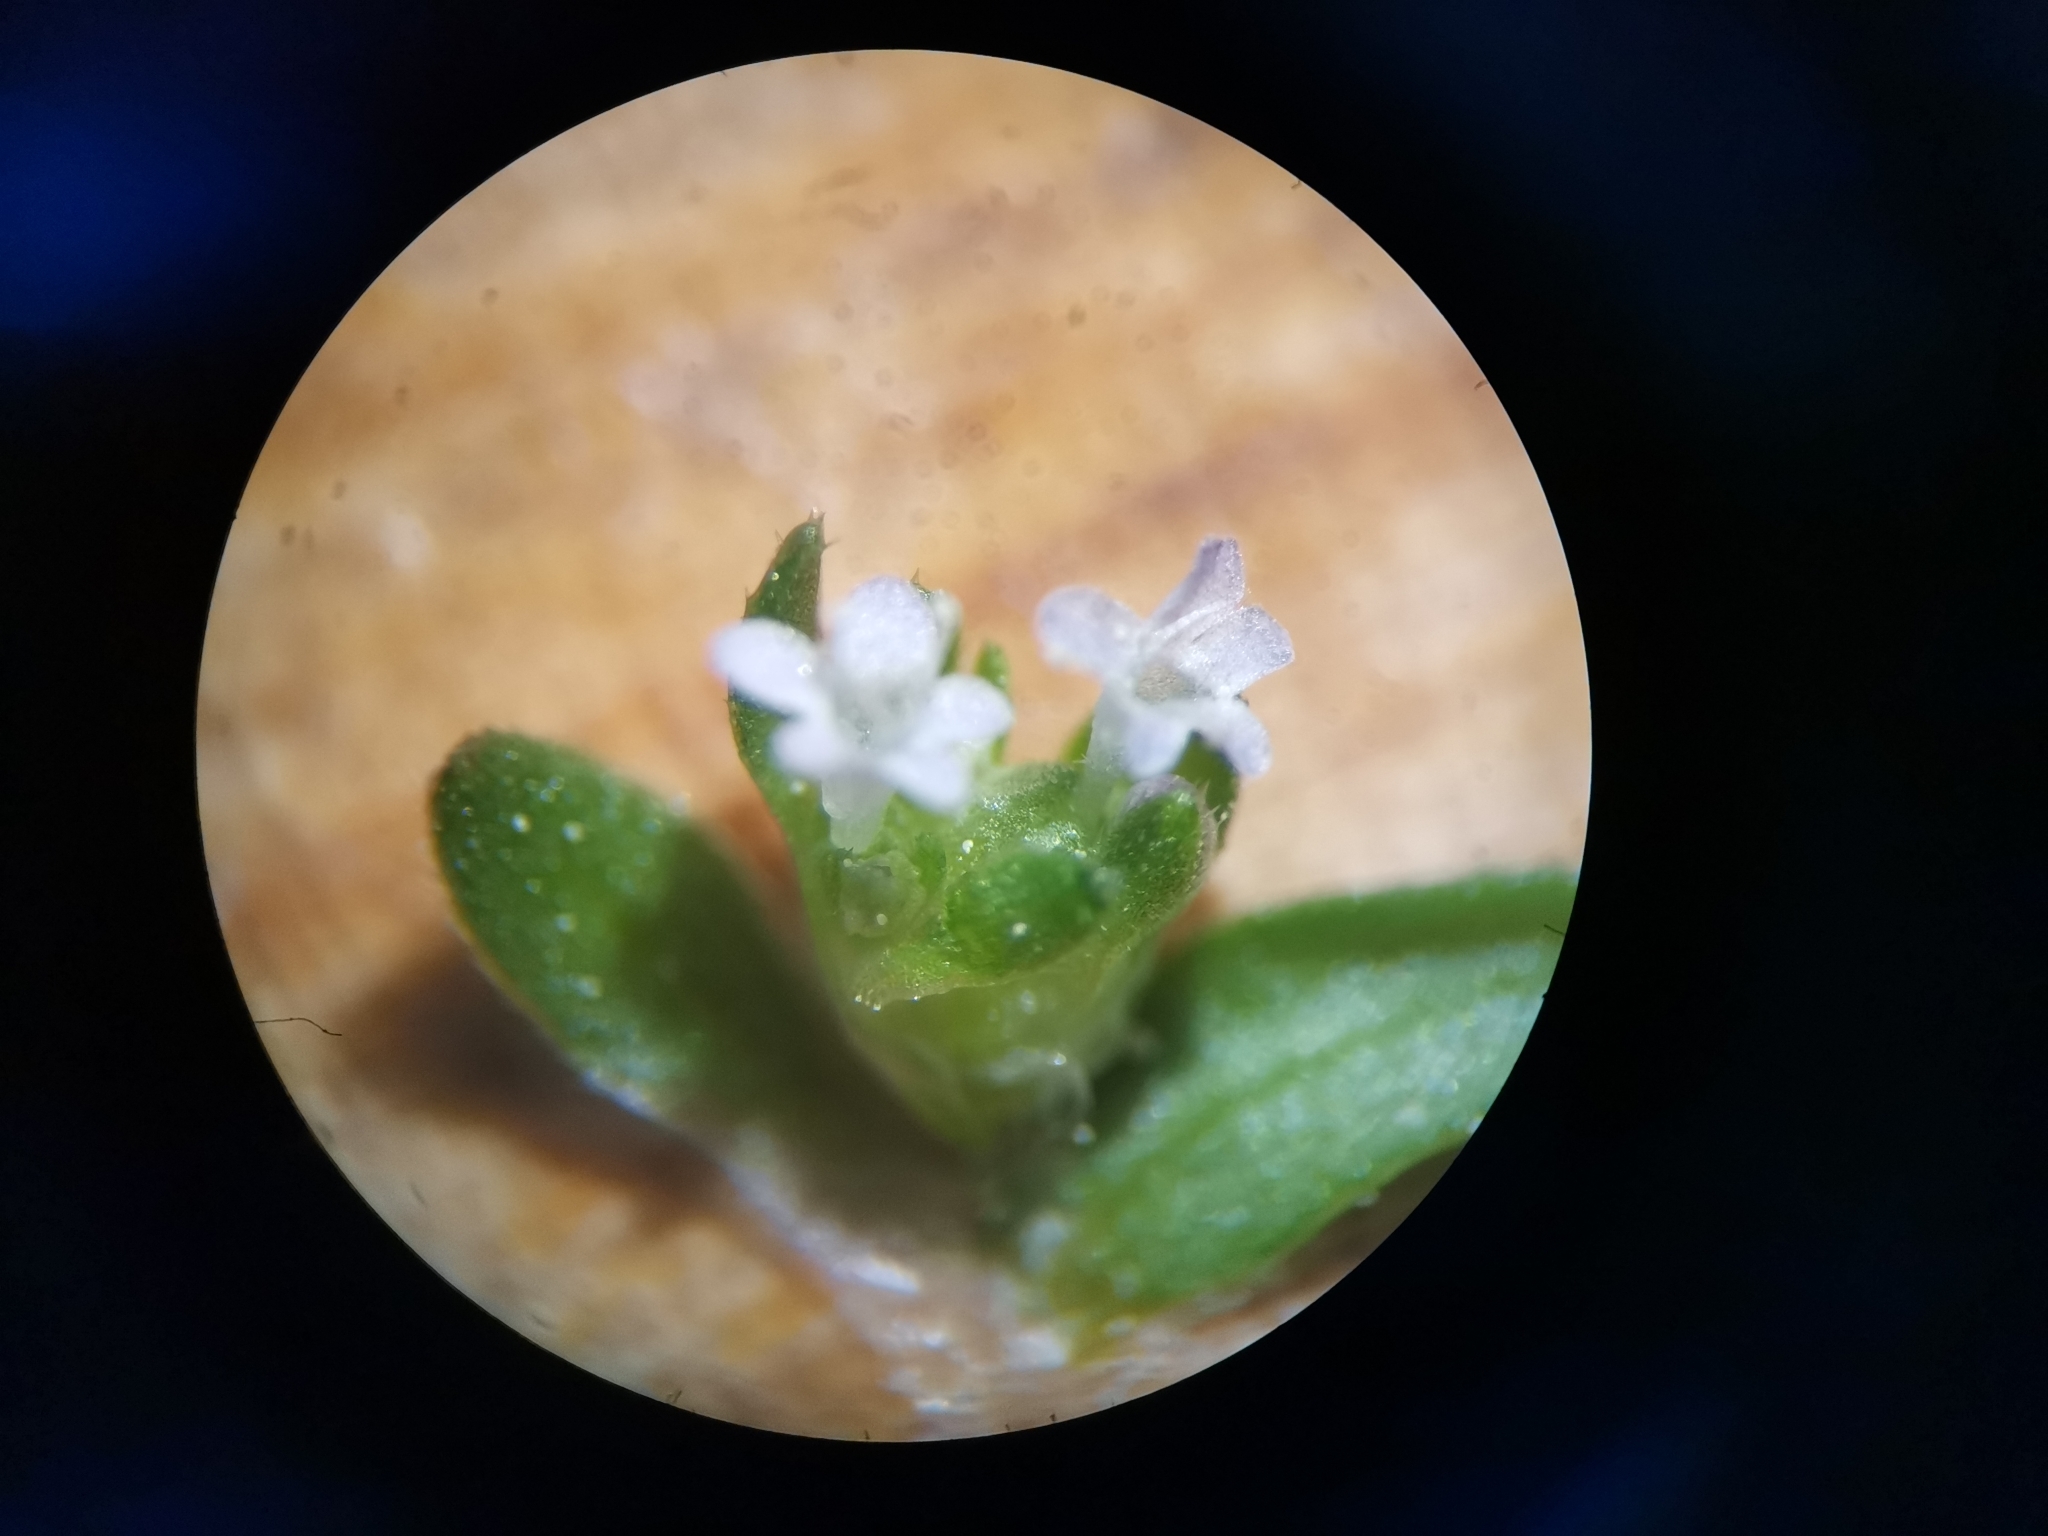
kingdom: Plantae
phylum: Tracheophyta
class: Magnoliopsida
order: Dipsacales
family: Caprifoliaceae
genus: Valerianella
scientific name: Valerianella locusta
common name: Common cornsalad
